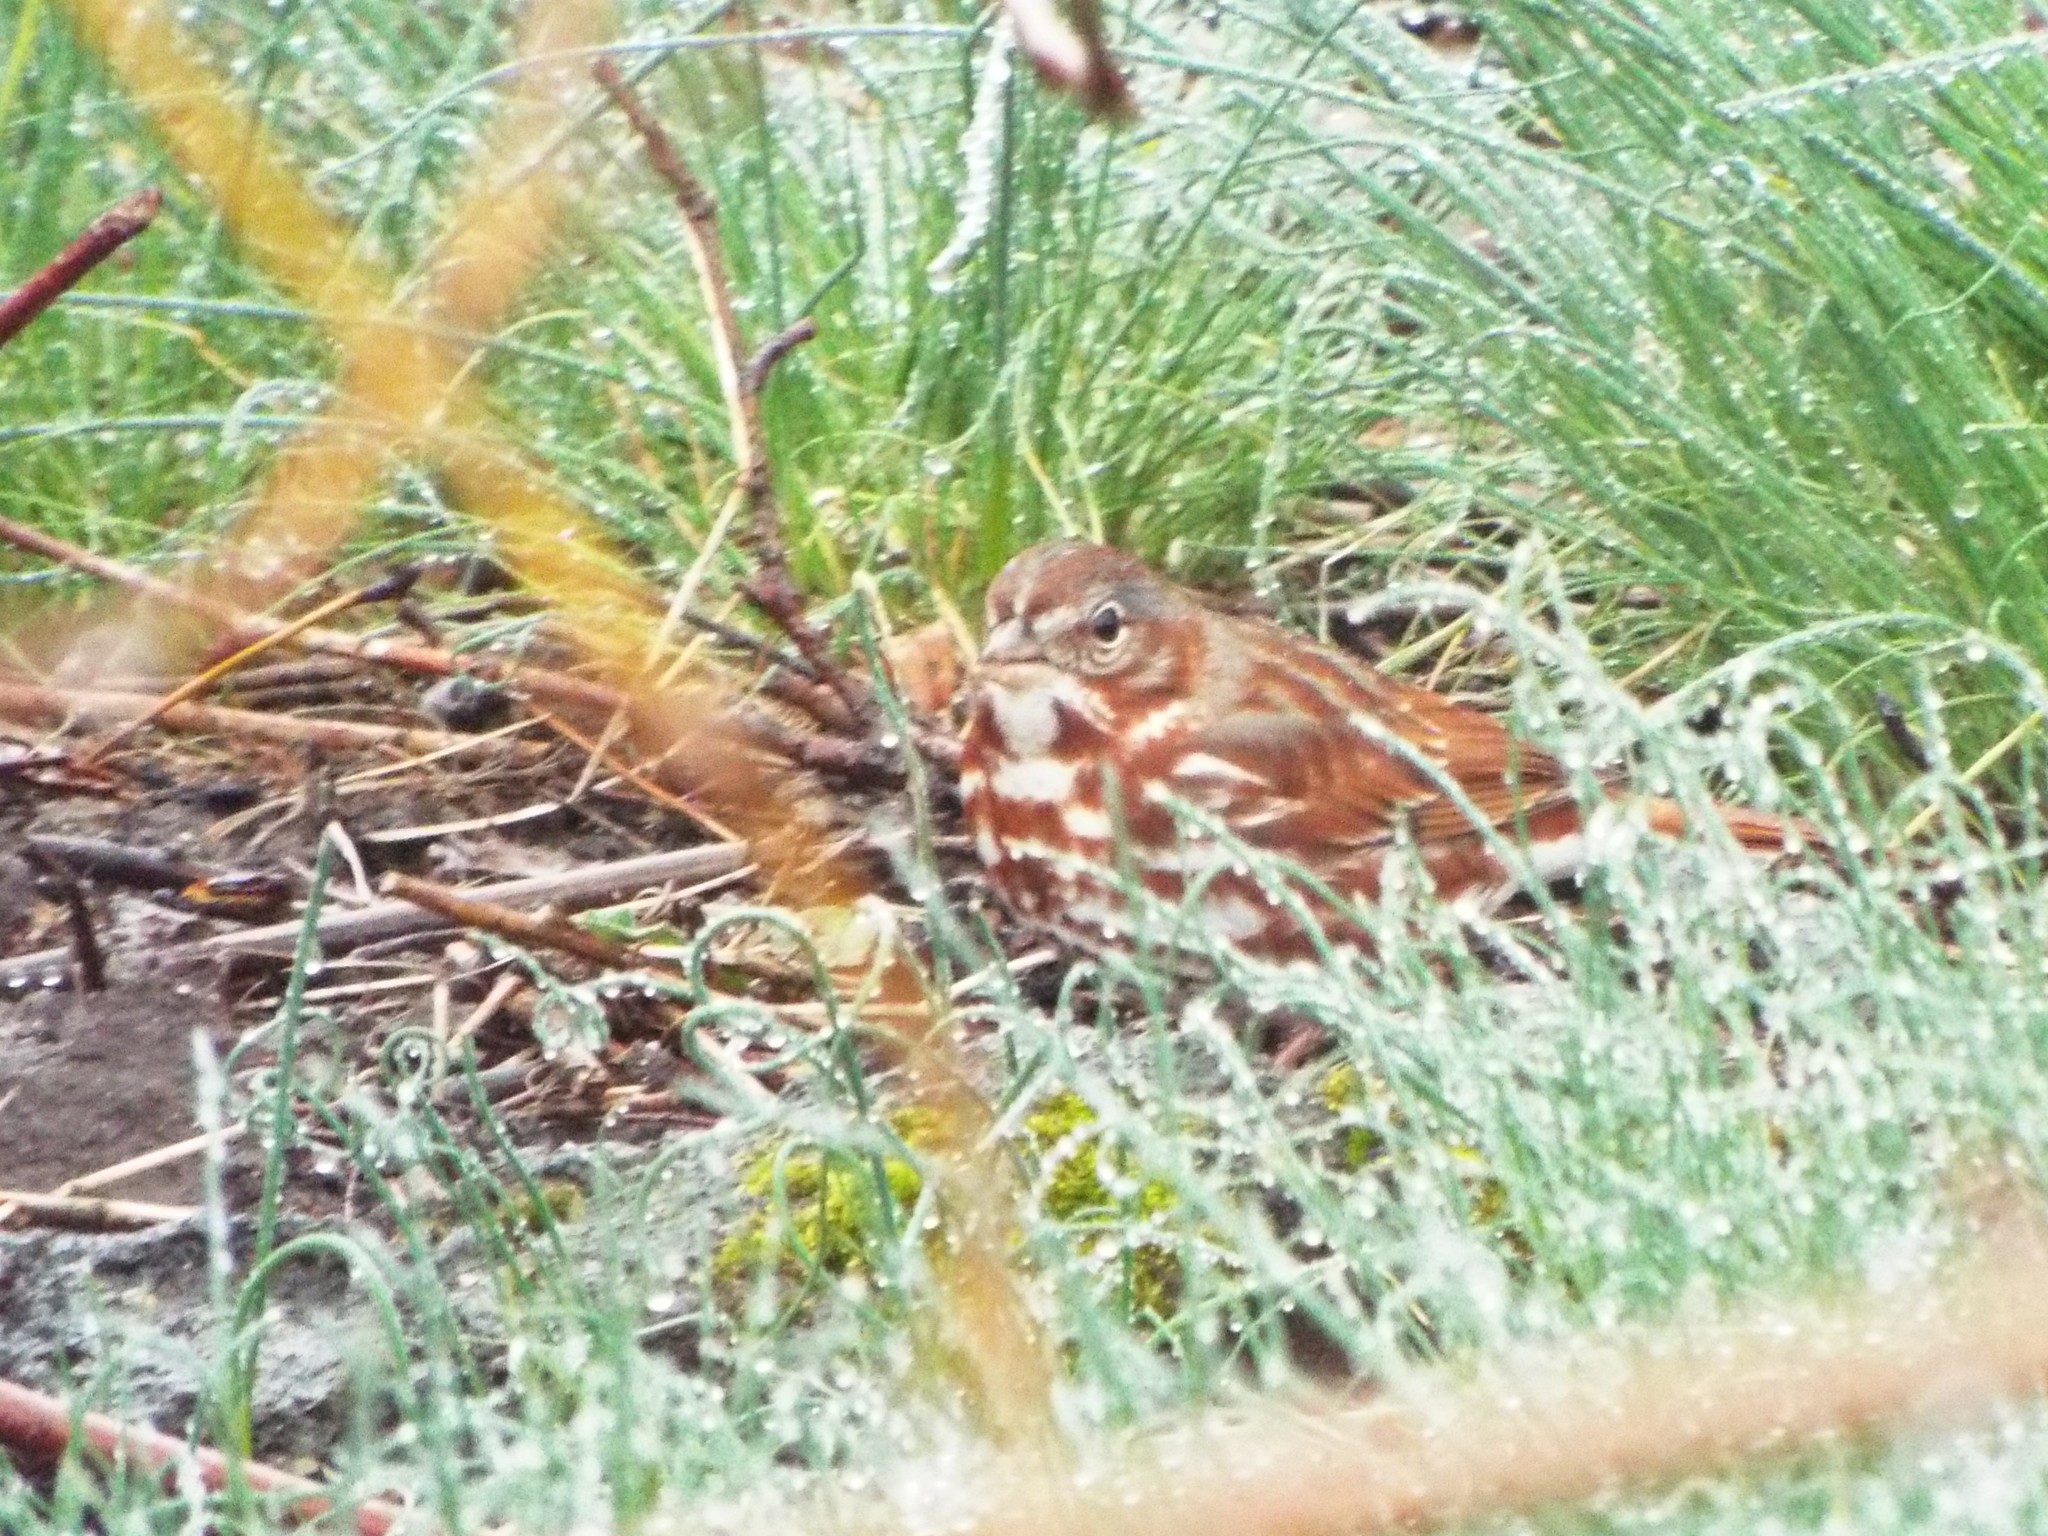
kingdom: Animalia
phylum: Chordata
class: Aves
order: Passeriformes
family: Passerellidae
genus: Passerella
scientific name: Passerella iliaca
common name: Fox sparrow
